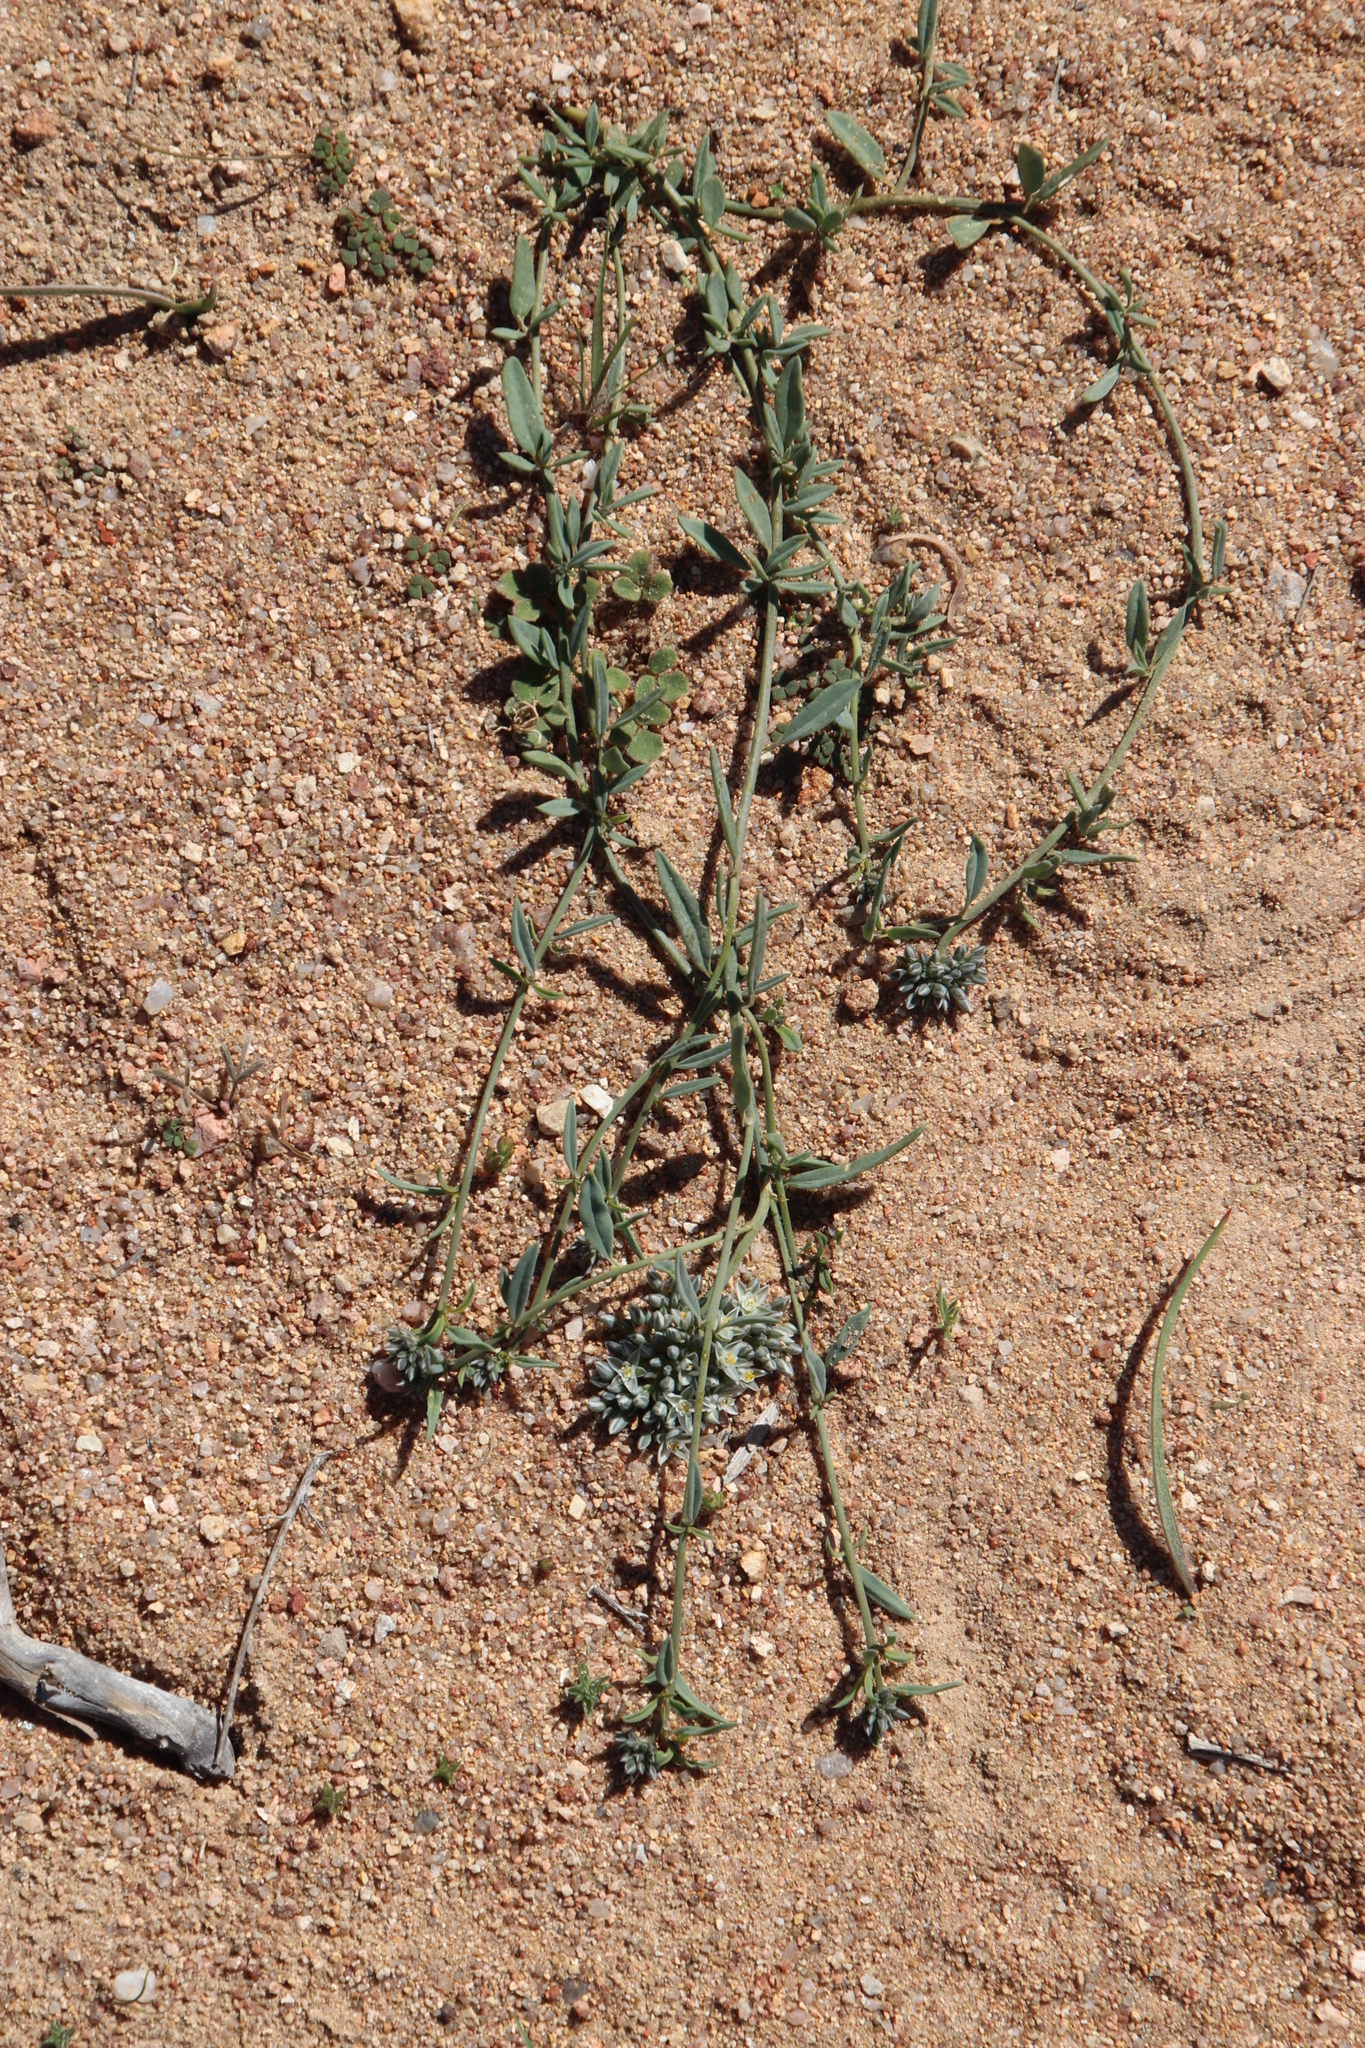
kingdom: Plantae
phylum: Tracheophyta
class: Magnoliopsida
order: Caryophyllales
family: Limeaceae
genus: Limeum
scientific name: Limeum africanum
